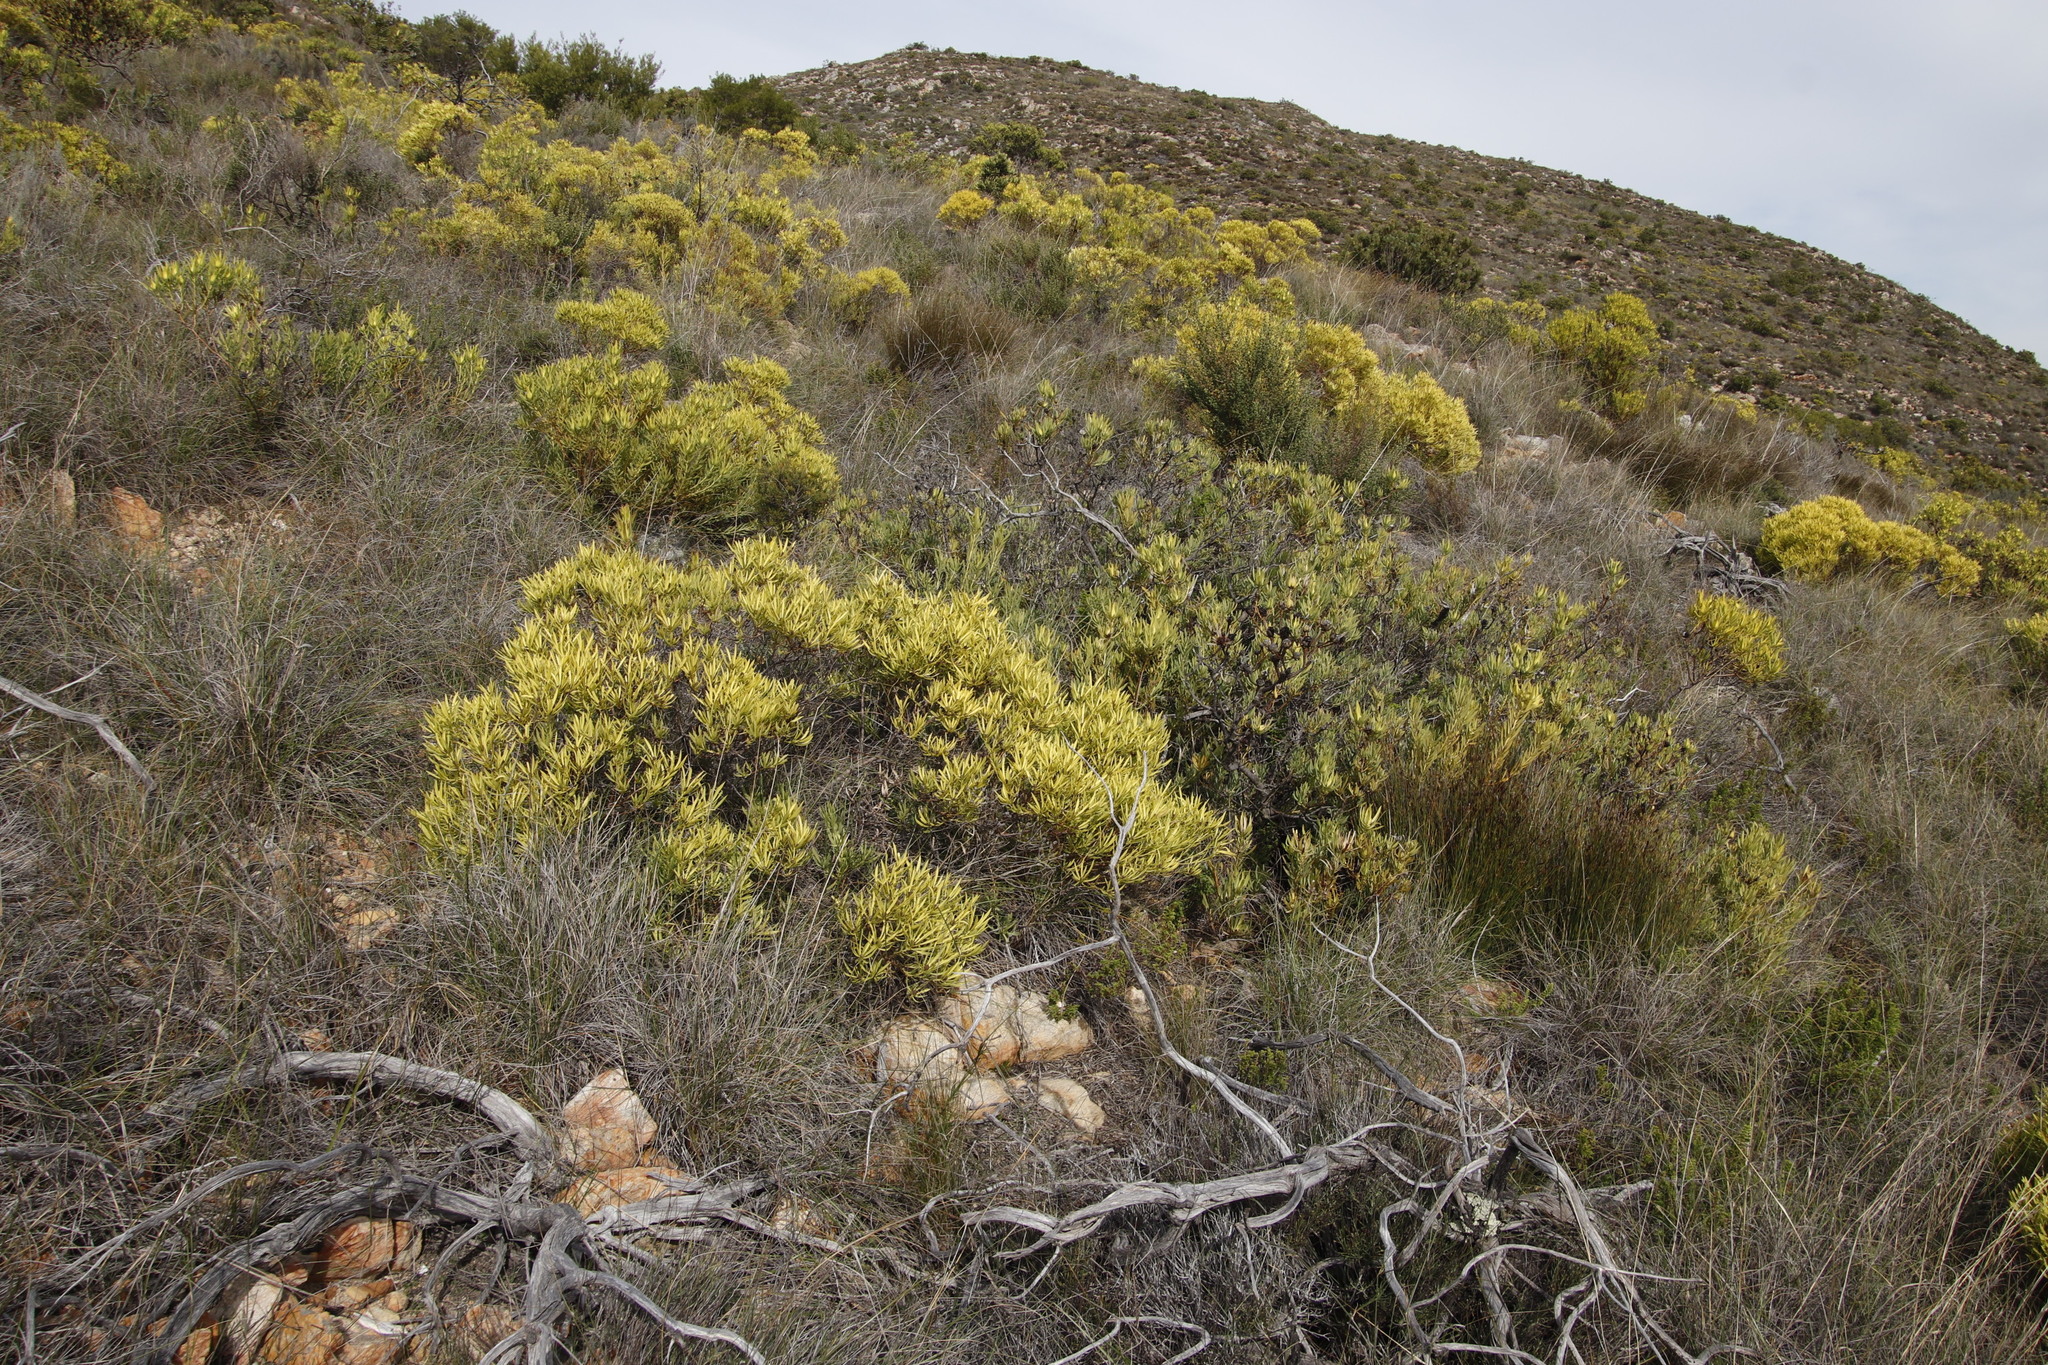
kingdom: Plantae
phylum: Tracheophyta
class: Magnoliopsida
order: Proteales
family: Proteaceae
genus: Leucadendron
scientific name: Leucadendron salignum
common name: Common sunshine conebush
